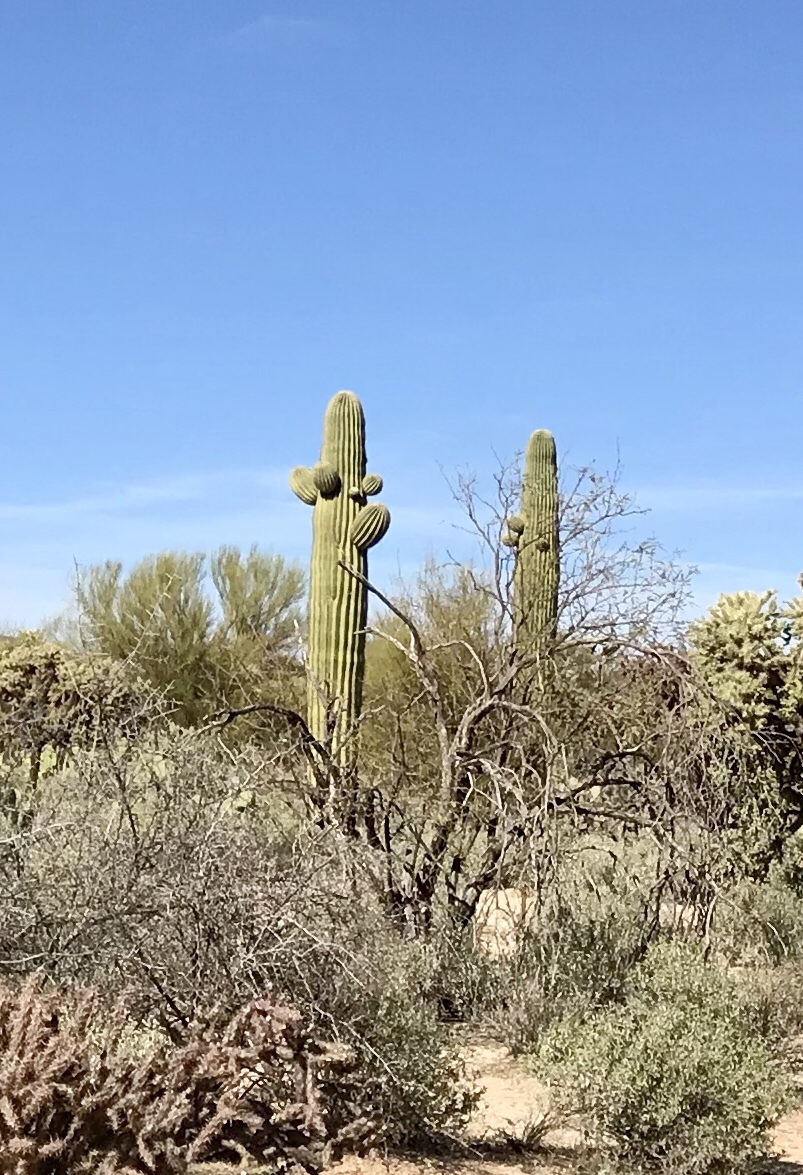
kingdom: Plantae
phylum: Tracheophyta
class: Magnoliopsida
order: Caryophyllales
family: Cactaceae
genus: Carnegiea
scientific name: Carnegiea gigantea
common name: Saguaro
